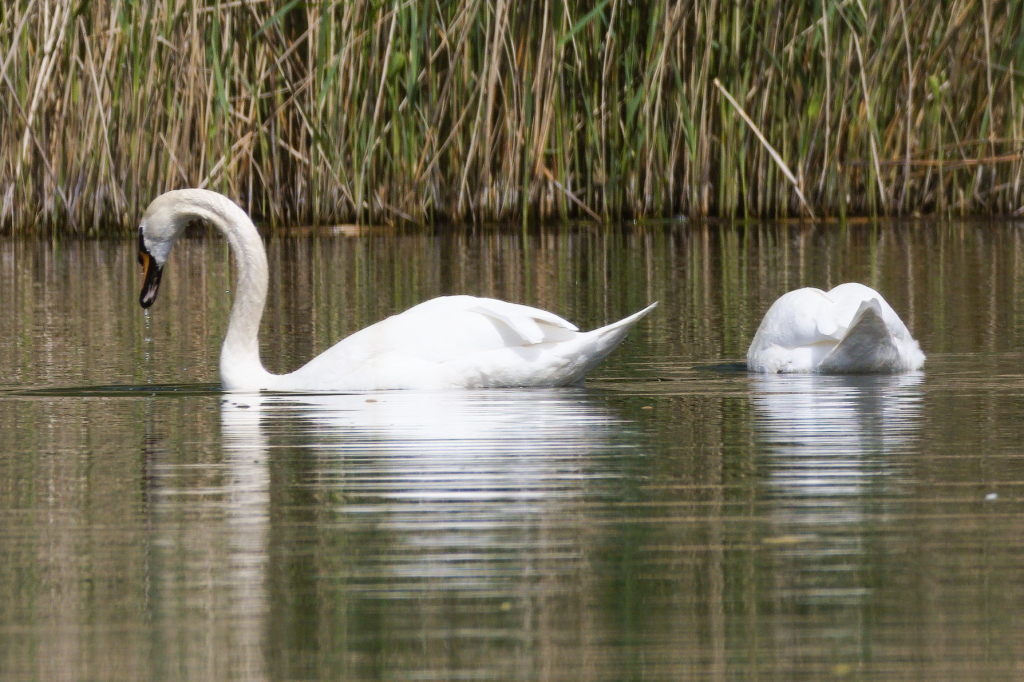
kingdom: Animalia
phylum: Chordata
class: Aves
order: Anseriformes
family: Anatidae
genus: Cygnus
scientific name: Cygnus olor
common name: Mute swan
